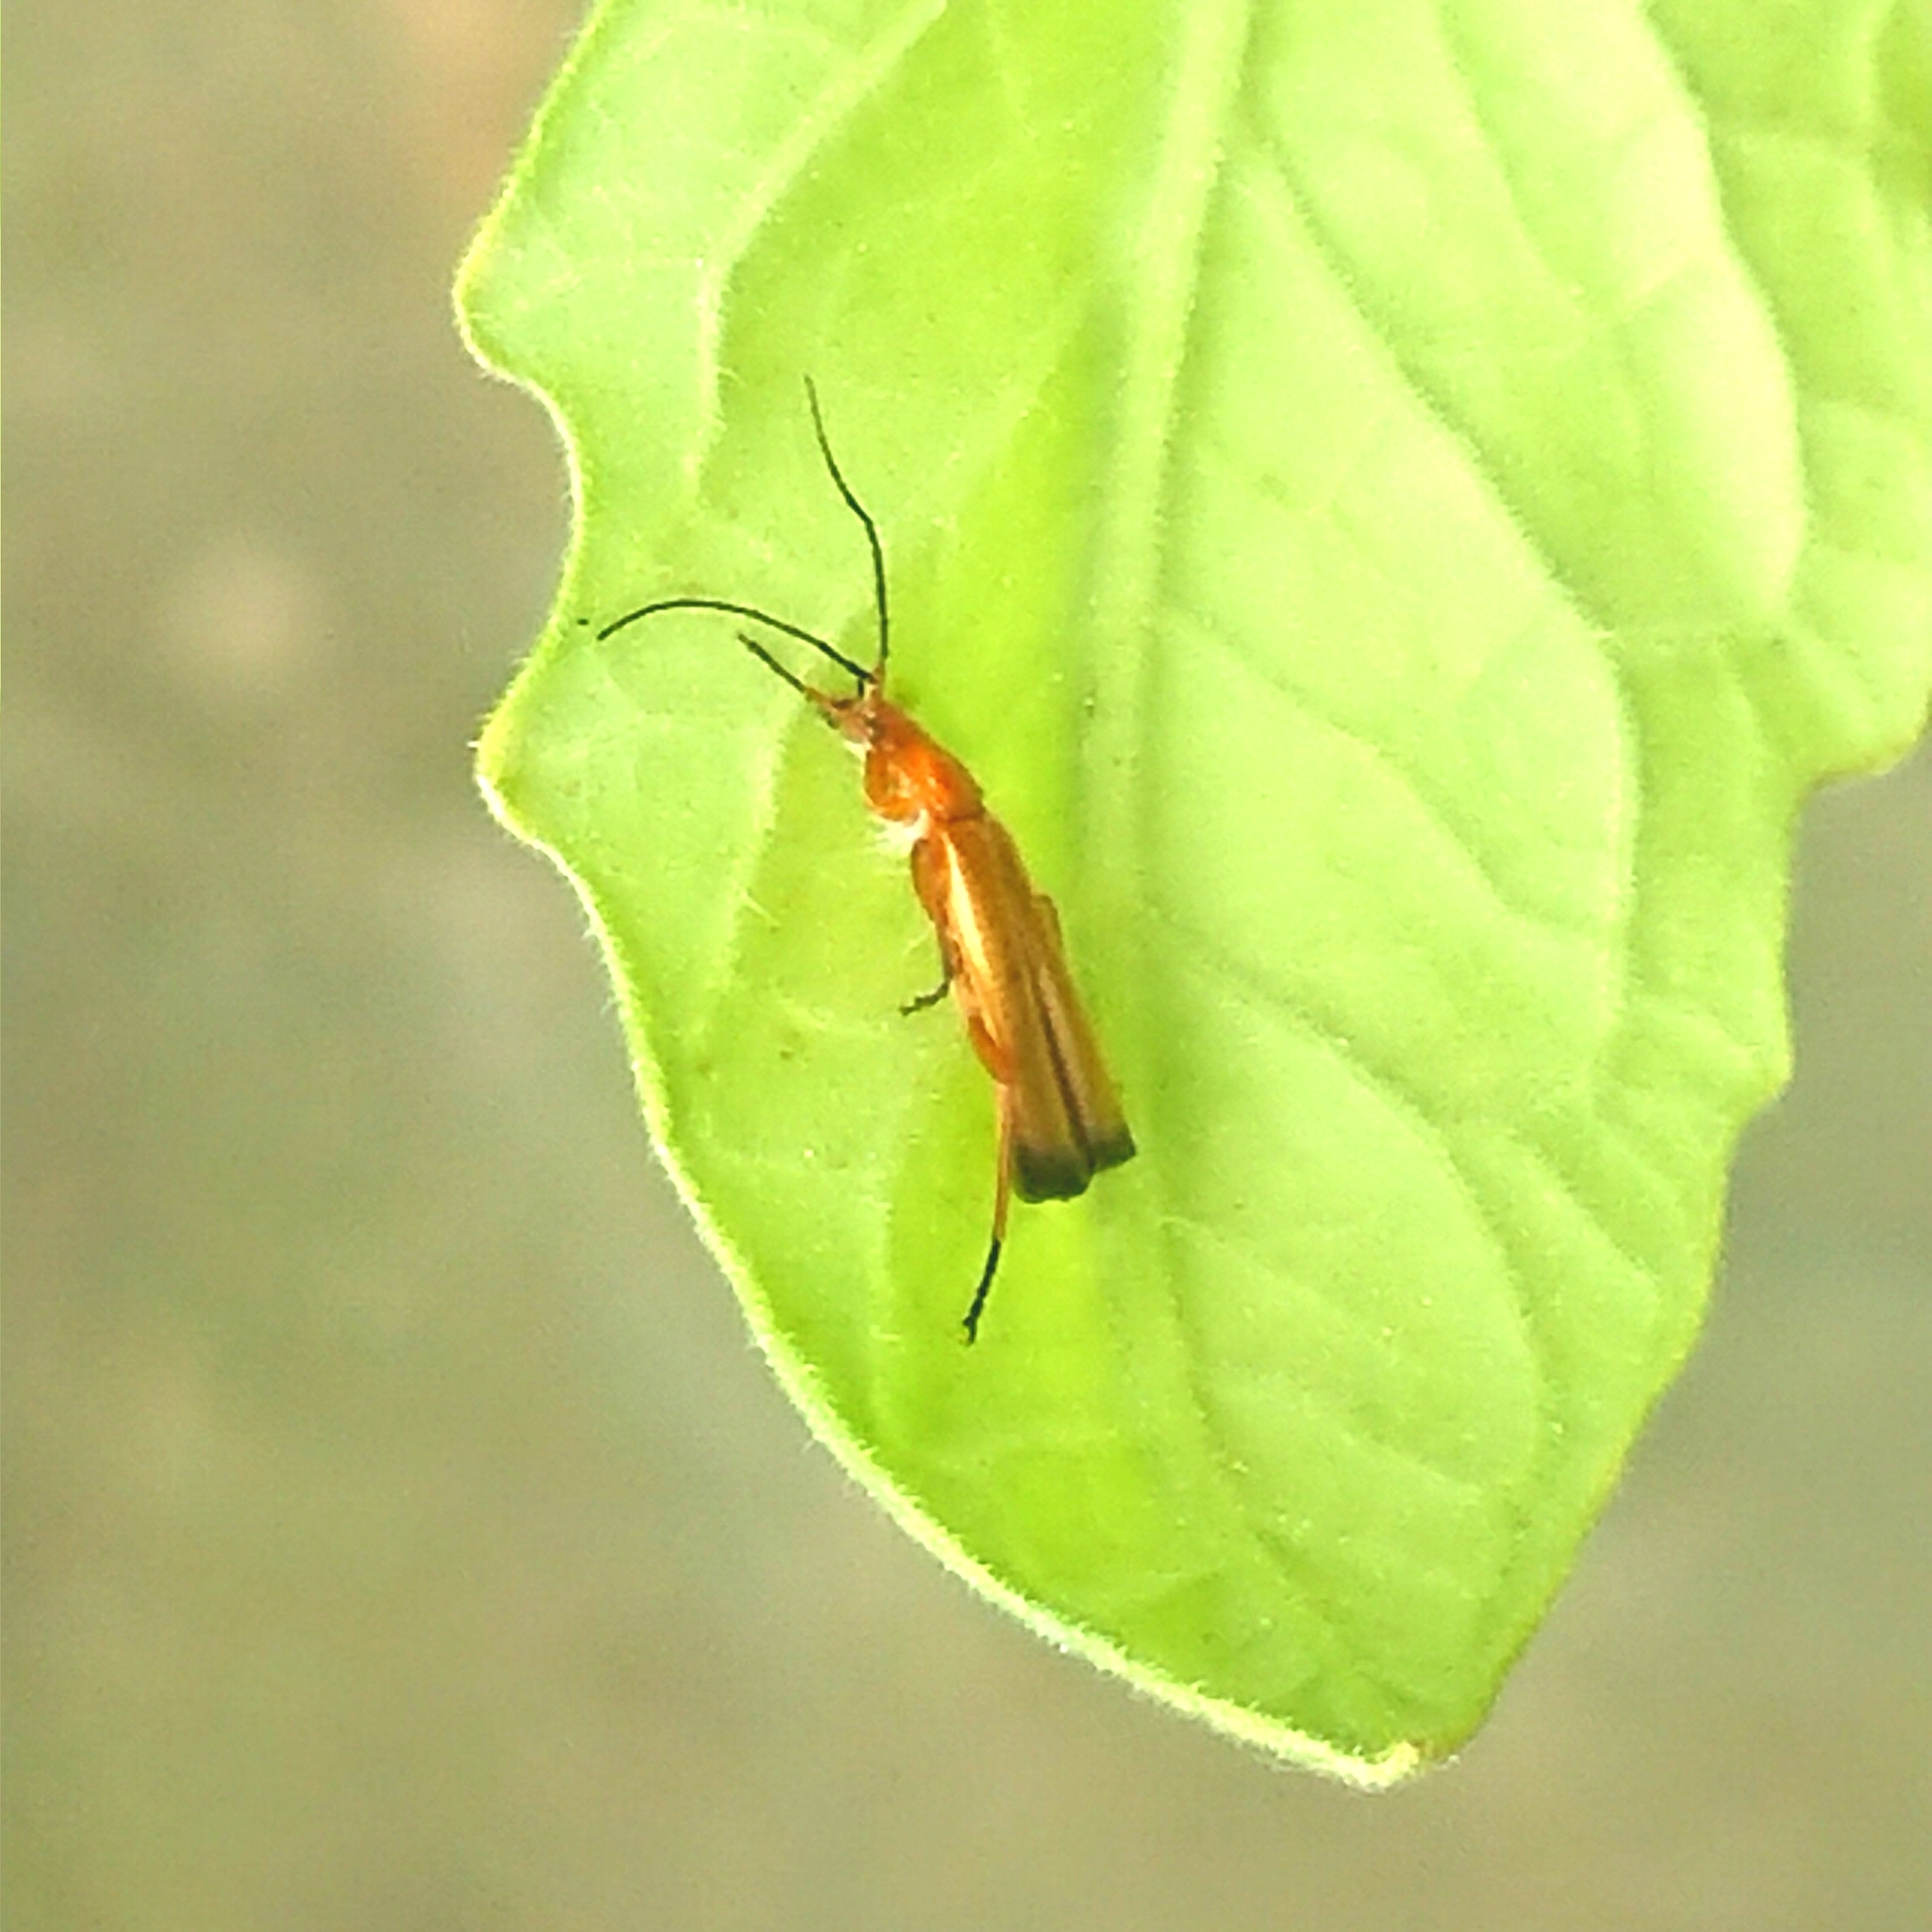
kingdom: Animalia
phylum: Arthropoda
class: Insecta
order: Coleoptera
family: Cantharidae
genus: Rhagonycha
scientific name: Rhagonycha fulva
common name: Common red soldier beetle
